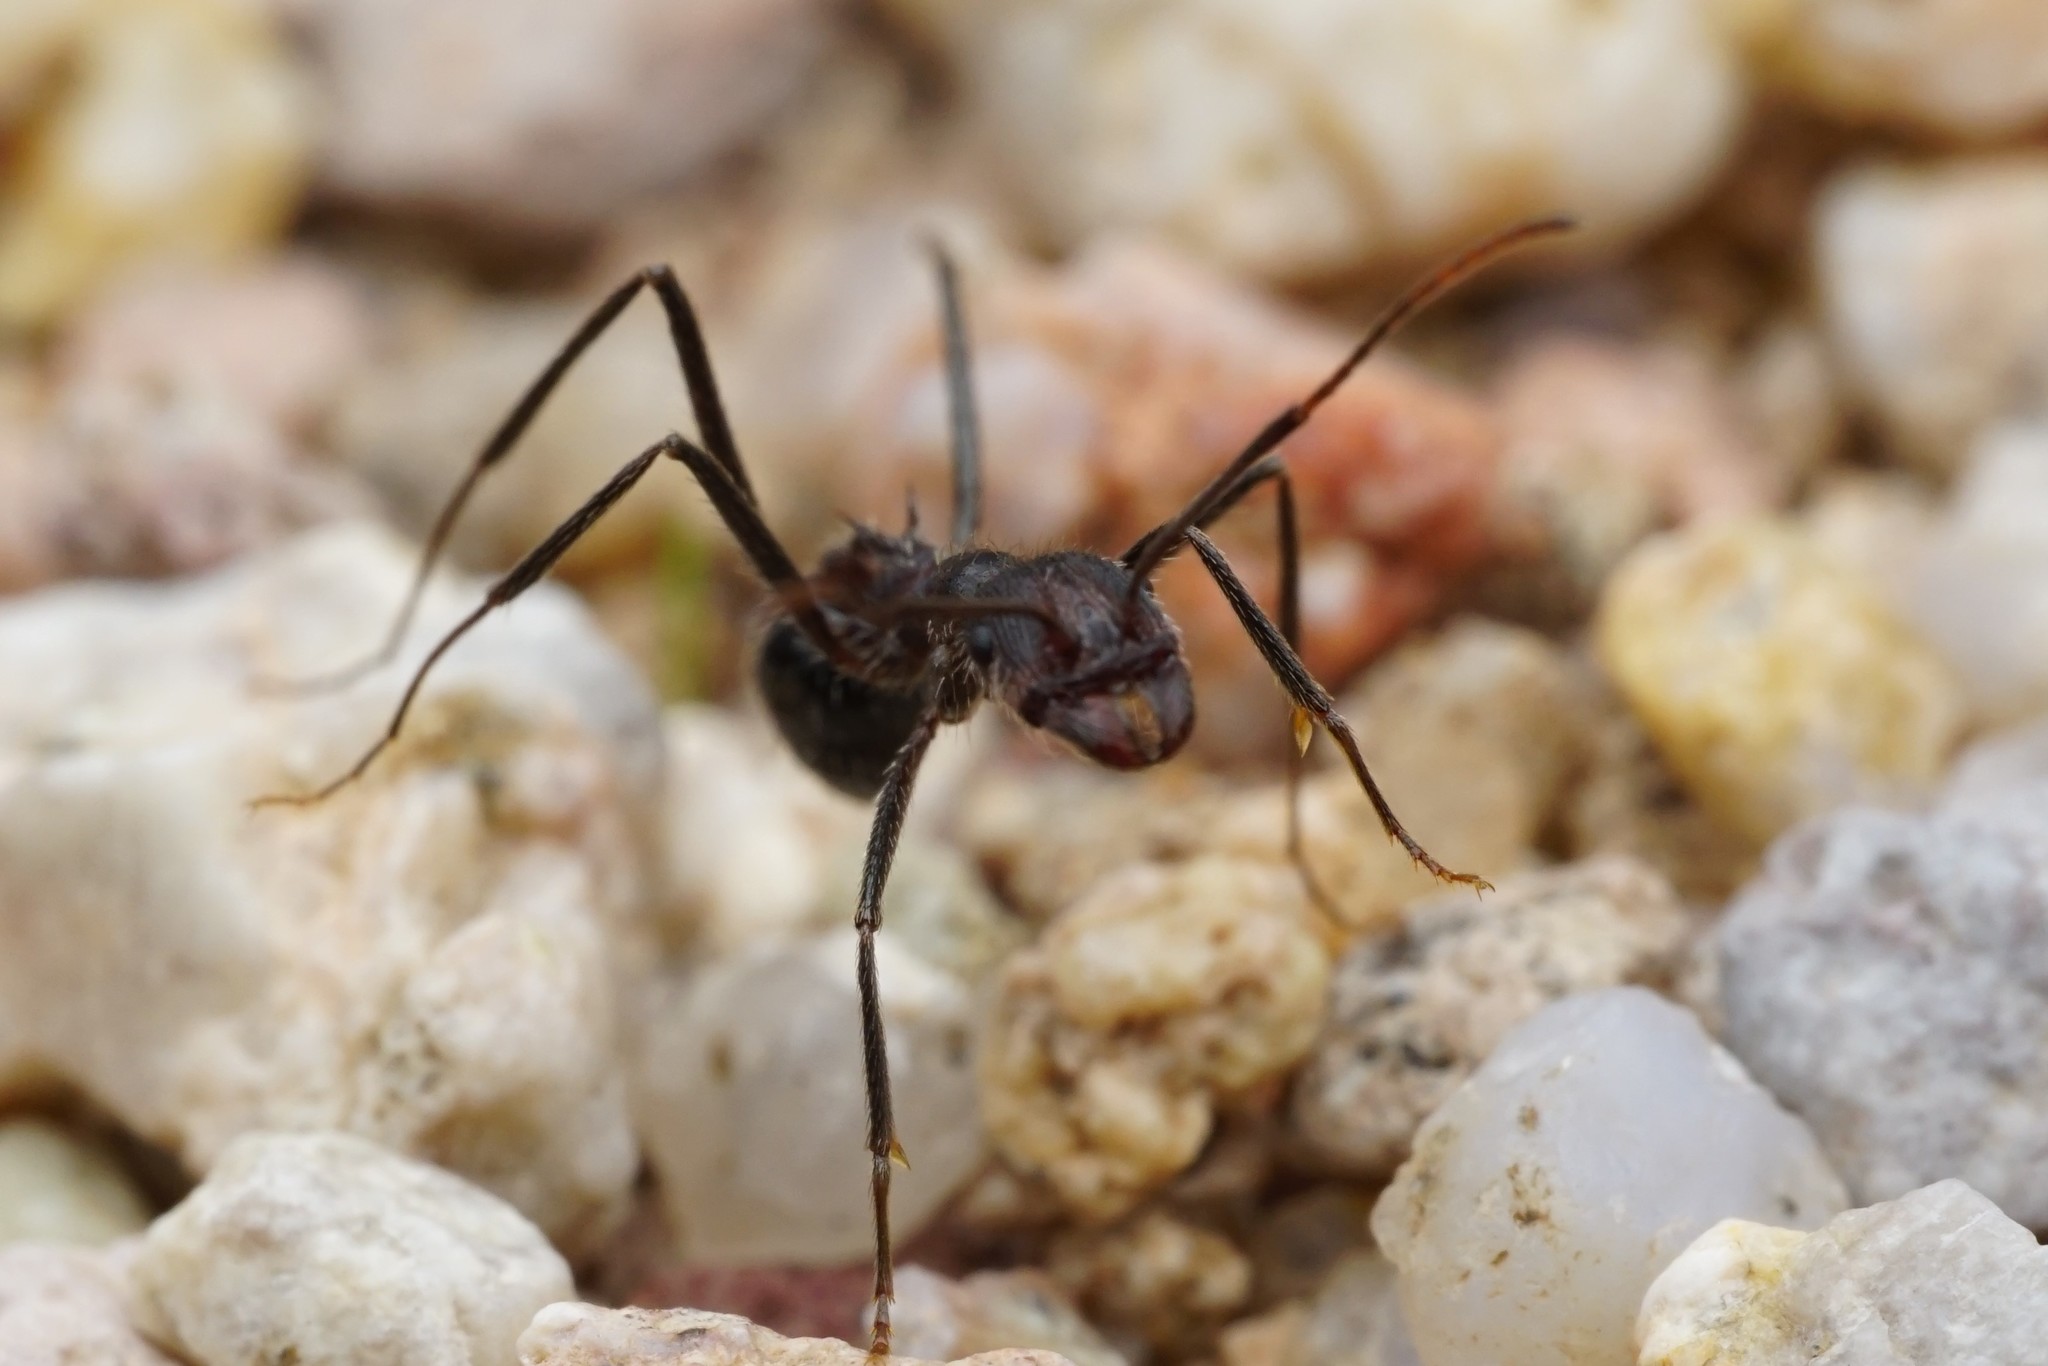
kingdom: Animalia
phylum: Arthropoda
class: Insecta
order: Hymenoptera
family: Formicidae
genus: Novomessor
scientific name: Novomessor albisetosa
